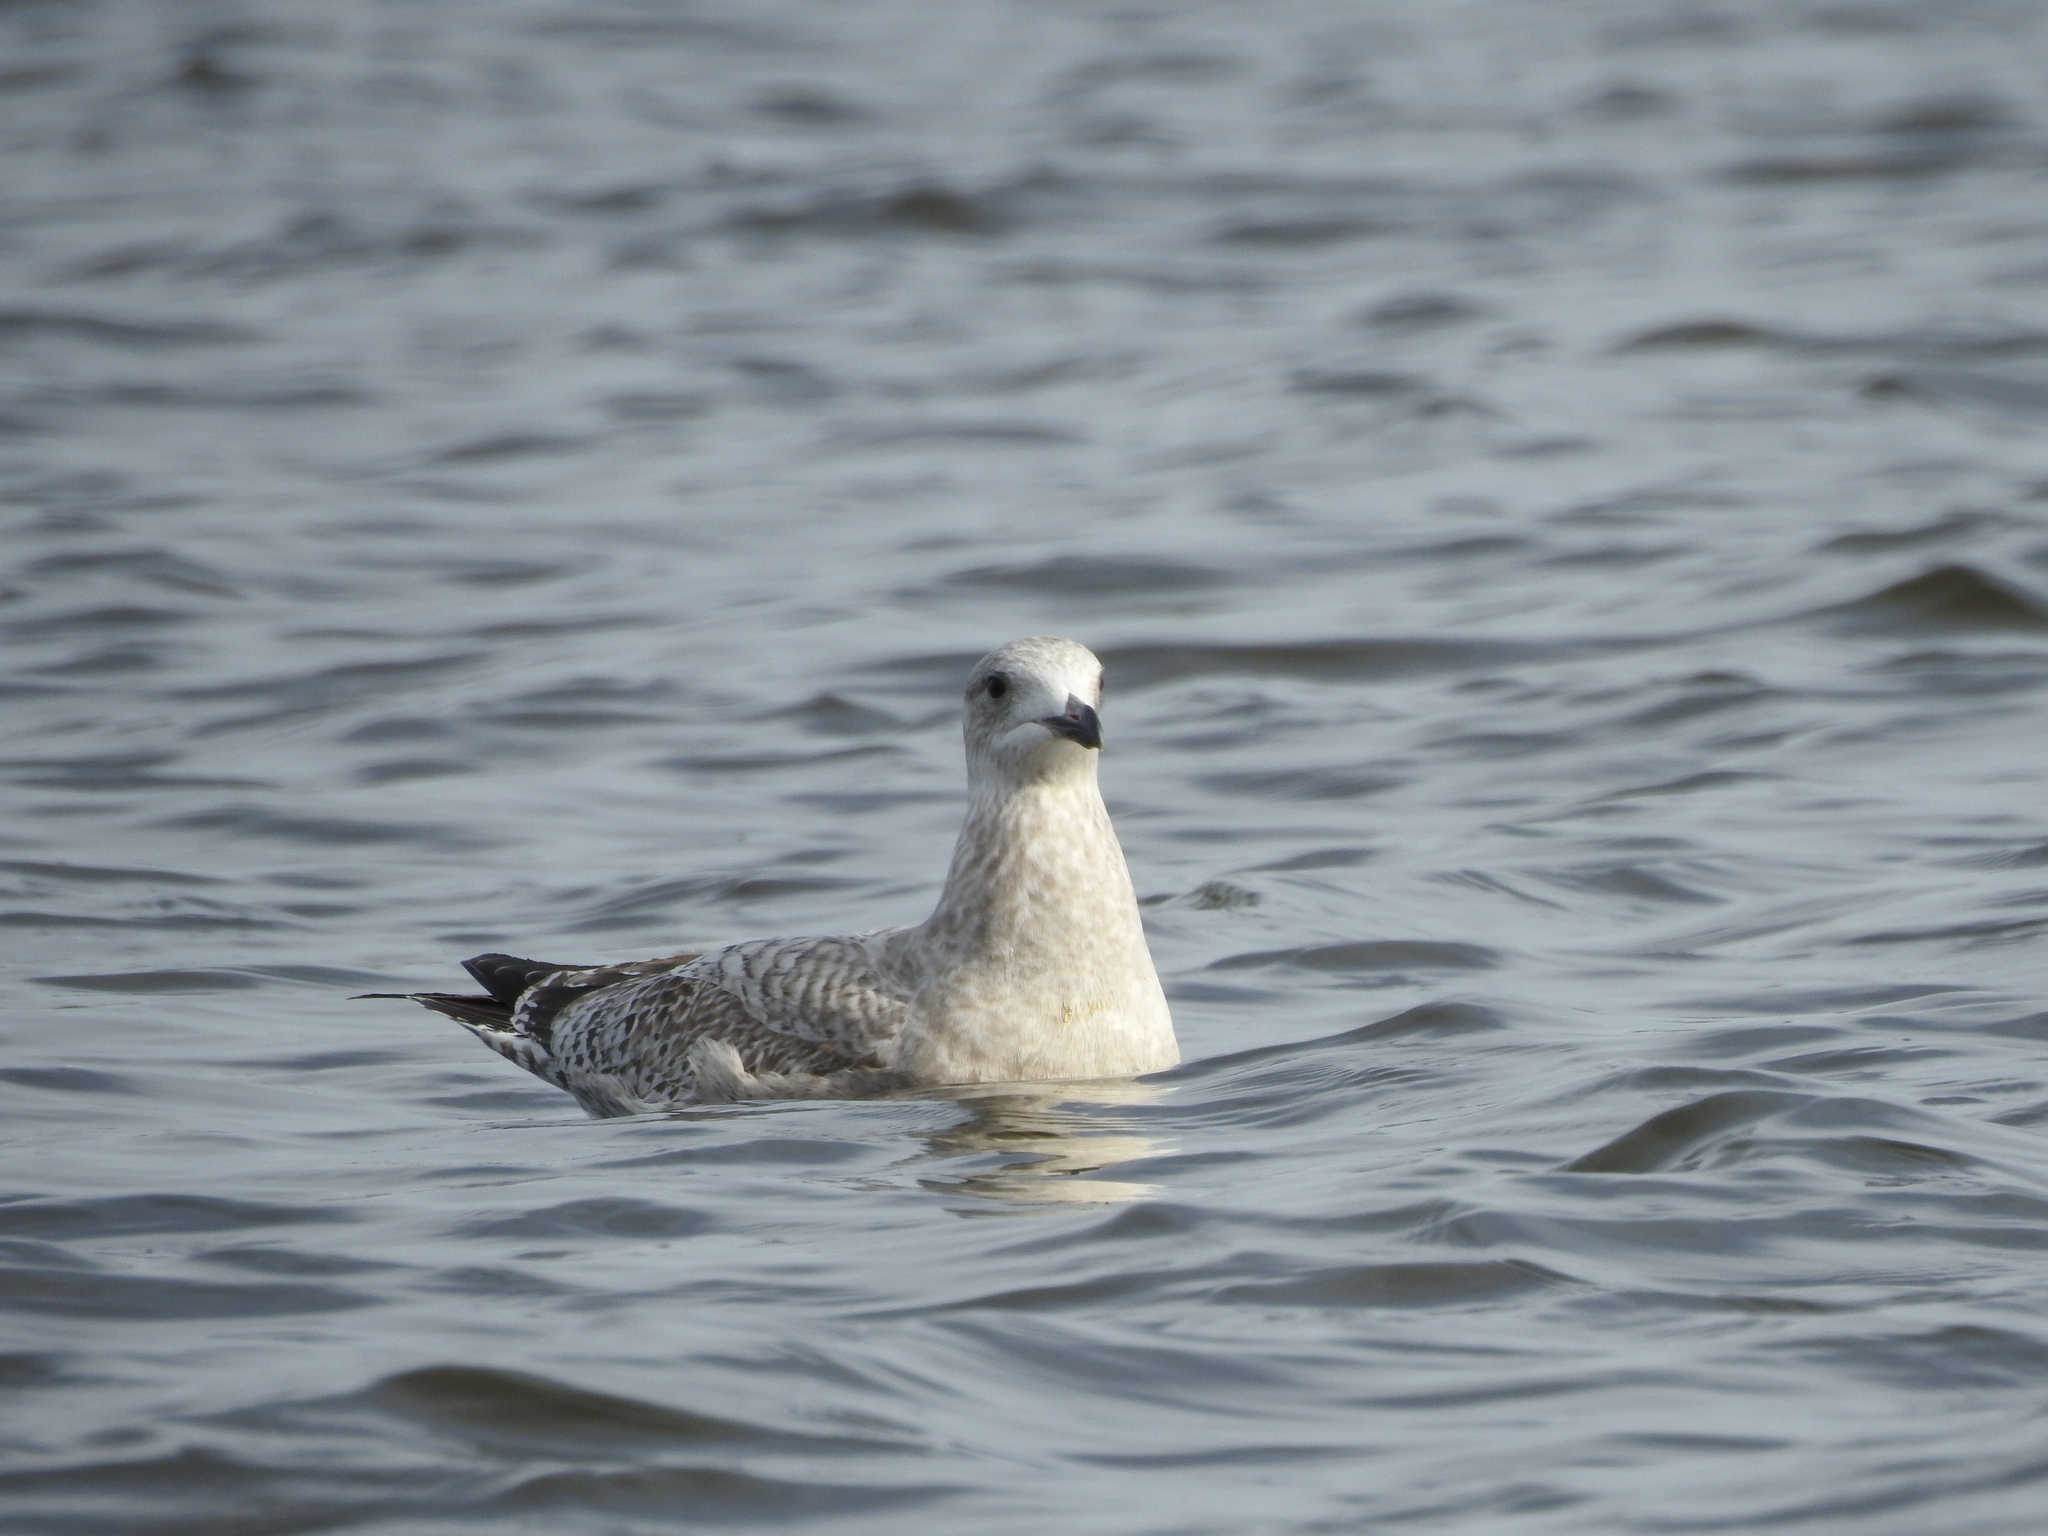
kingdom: Animalia
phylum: Chordata
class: Aves
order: Charadriiformes
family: Laridae
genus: Larus
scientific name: Larus argentatus
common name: Herring gull
